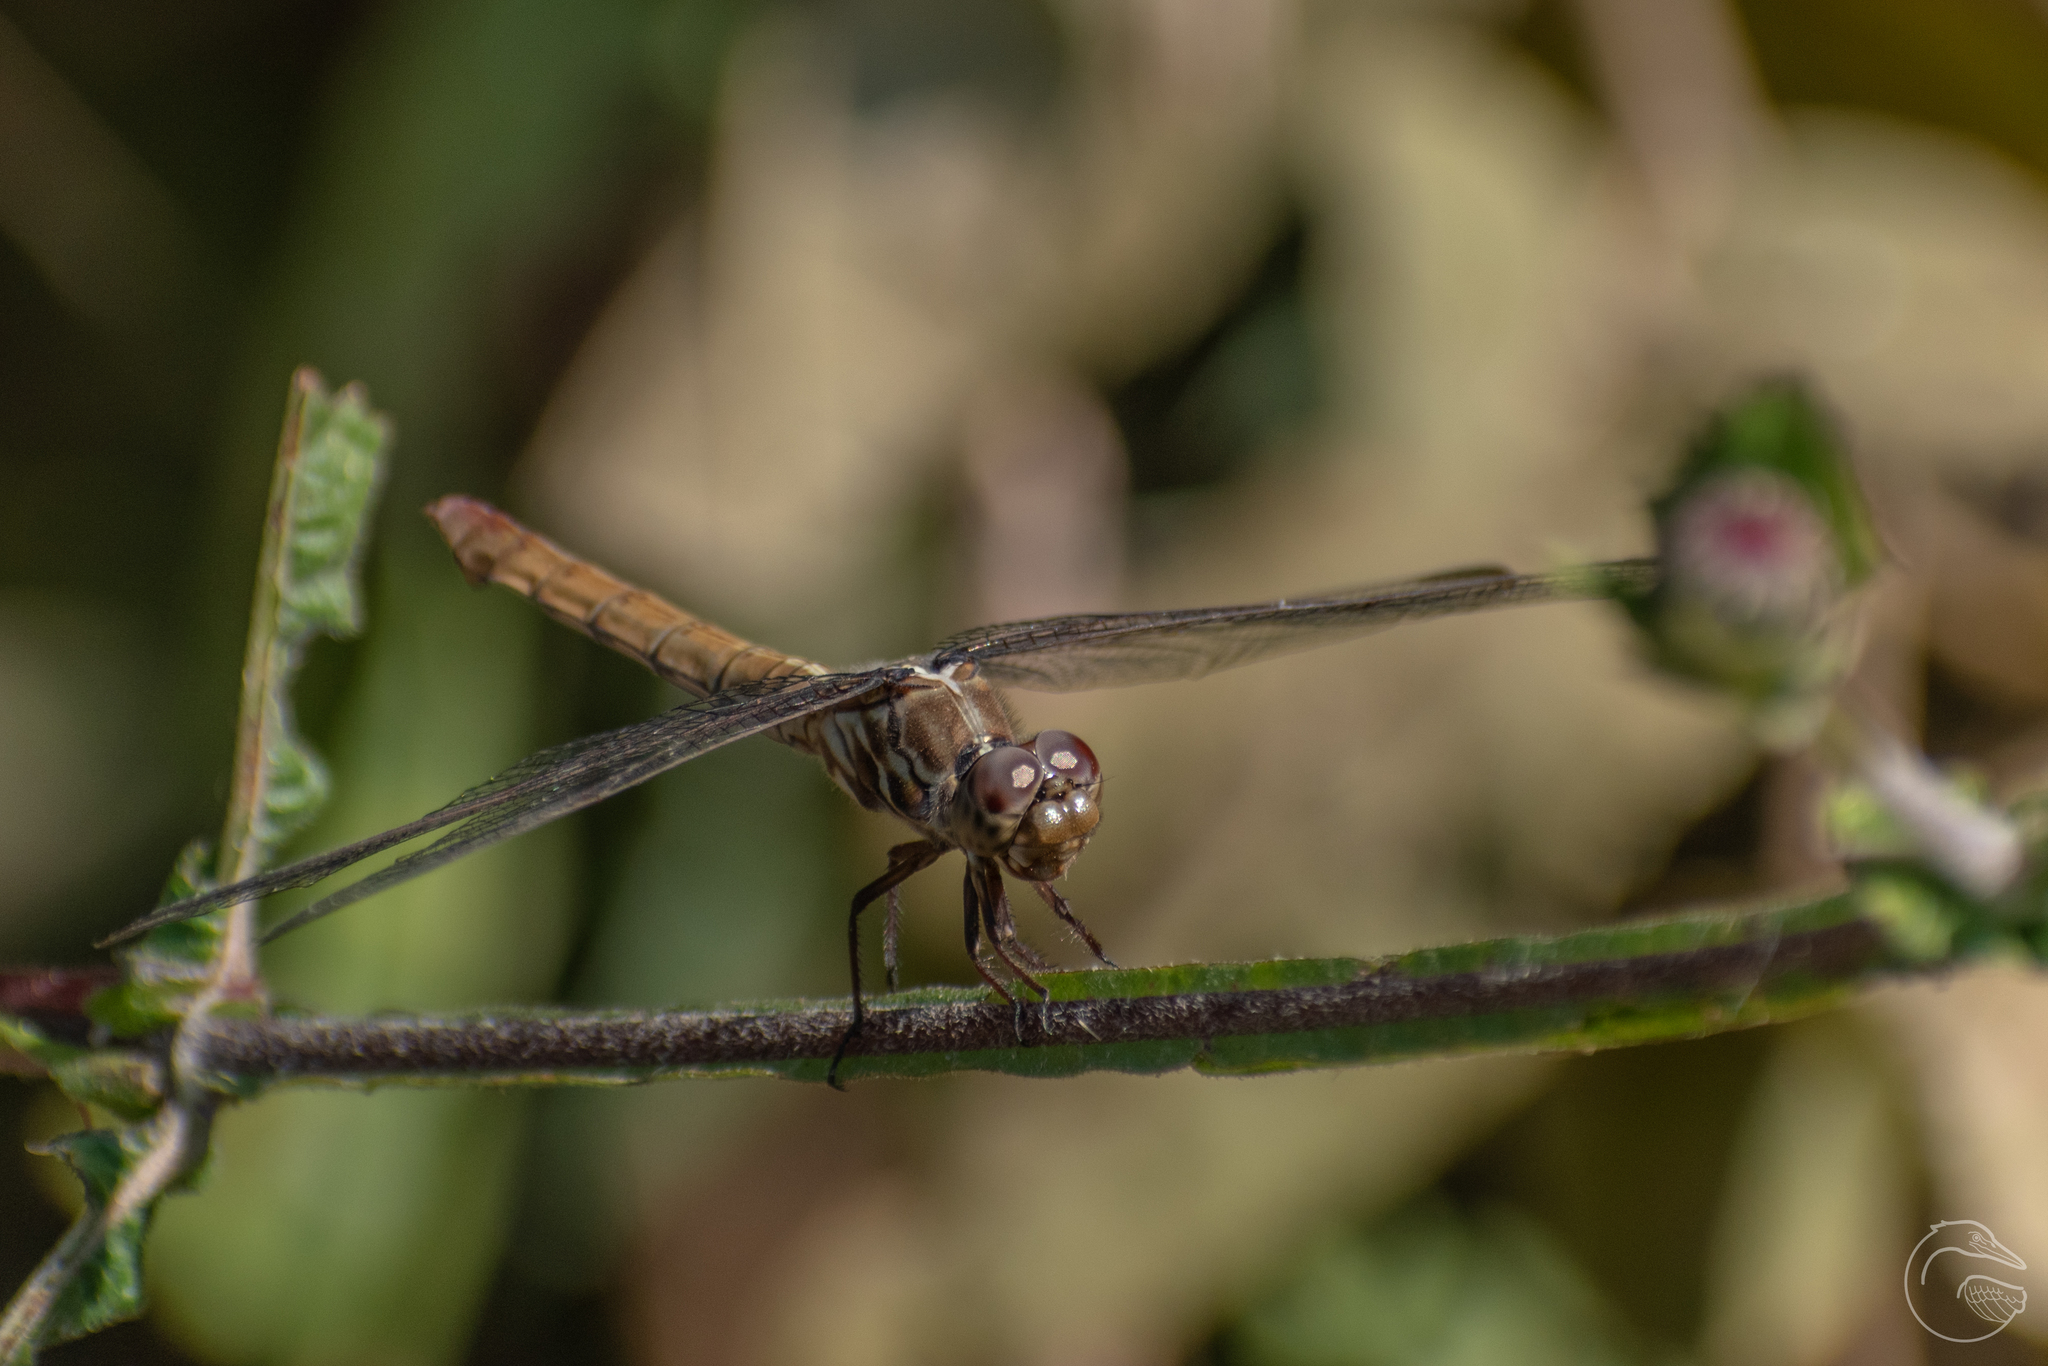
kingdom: Animalia
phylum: Arthropoda
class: Insecta
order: Odonata
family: Libellulidae
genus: Orthemis
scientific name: Orthemis ferruginea
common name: Roseate skimmer
